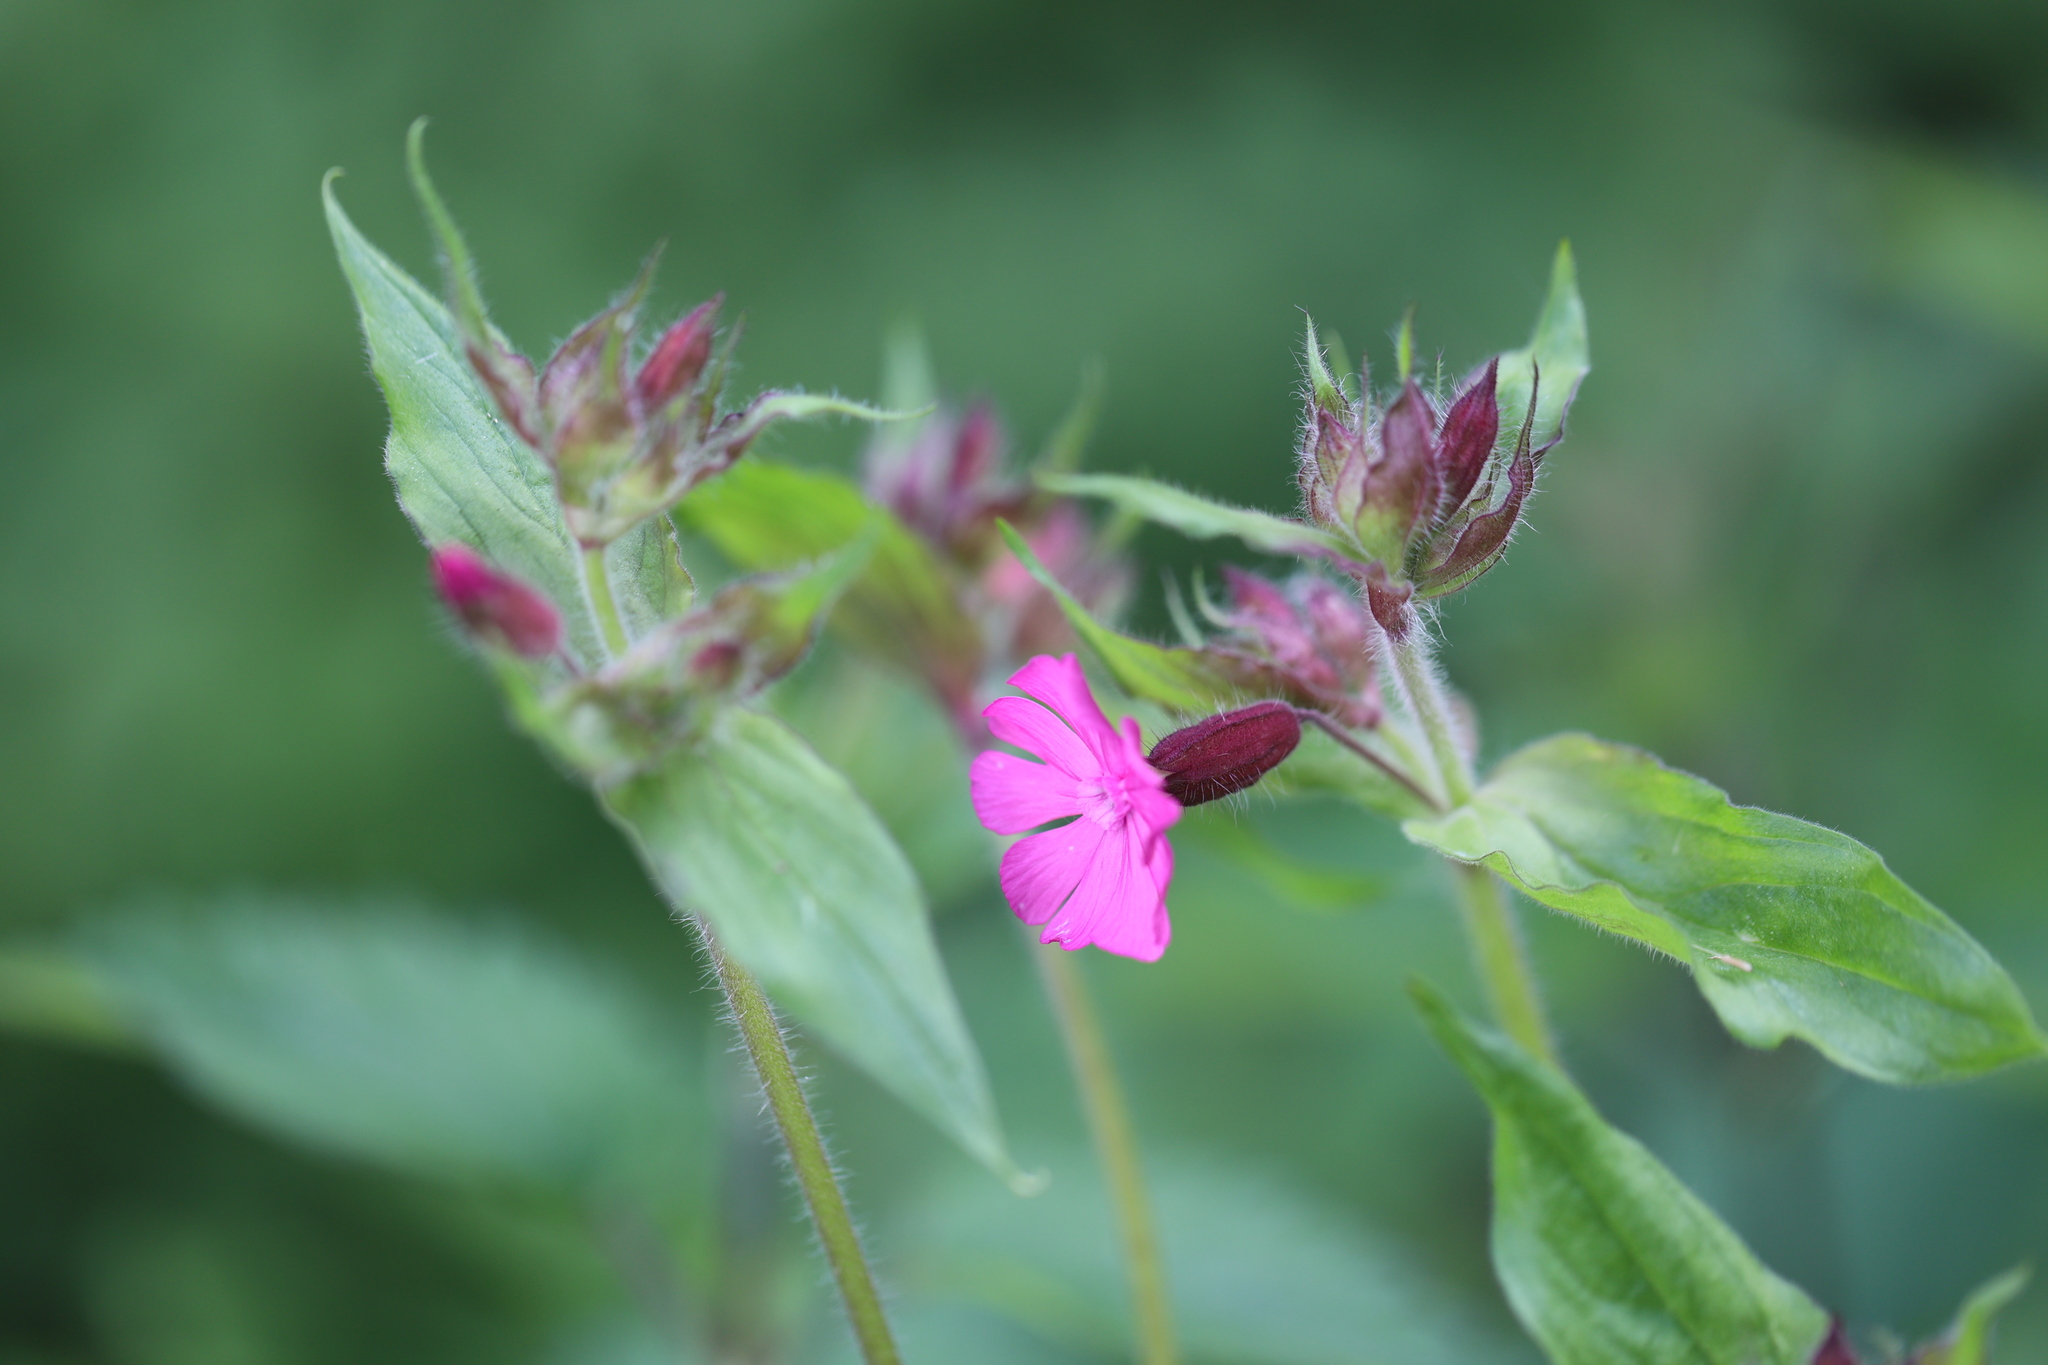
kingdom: Plantae
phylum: Tracheophyta
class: Magnoliopsida
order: Caryophyllales
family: Caryophyllaceae
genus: Silene
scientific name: Silene dioica
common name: Red campion
